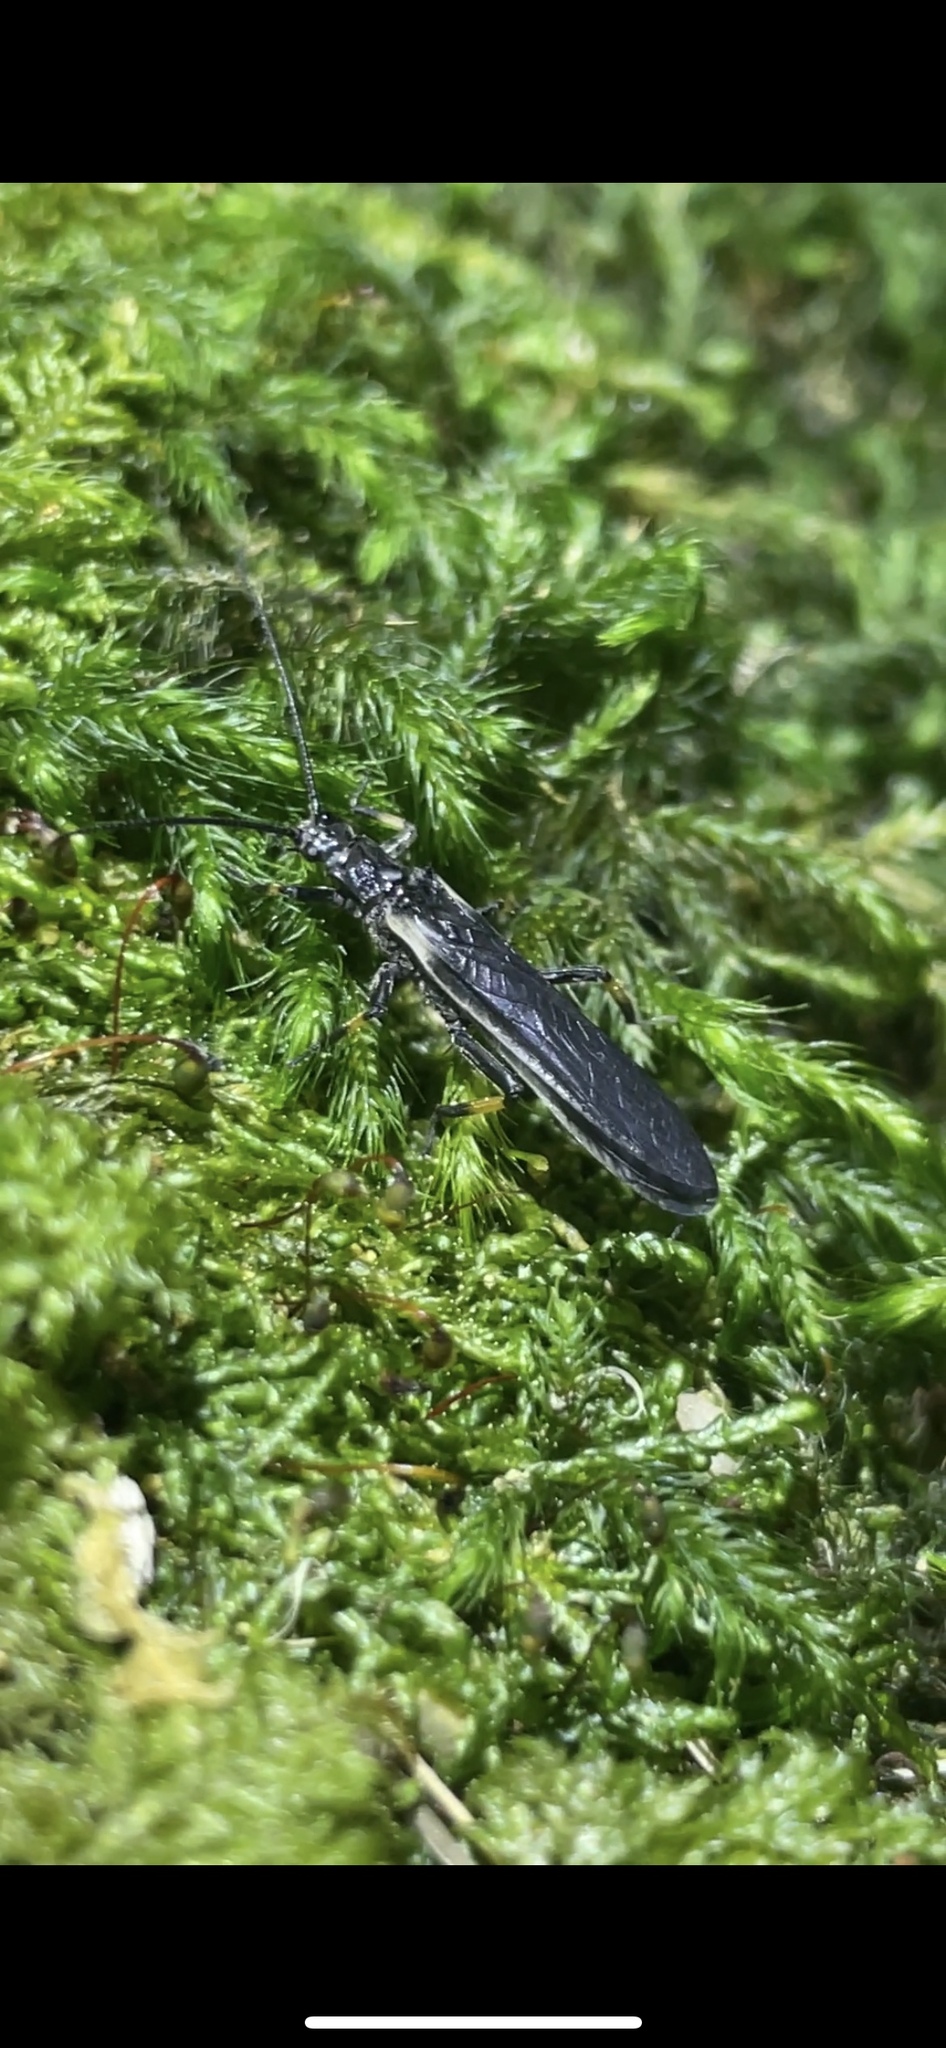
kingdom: Animalia
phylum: Arthropoda
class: Insecta
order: Plecoptera
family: Austroperlidae
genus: Austroperla
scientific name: Austroperla cyrene
